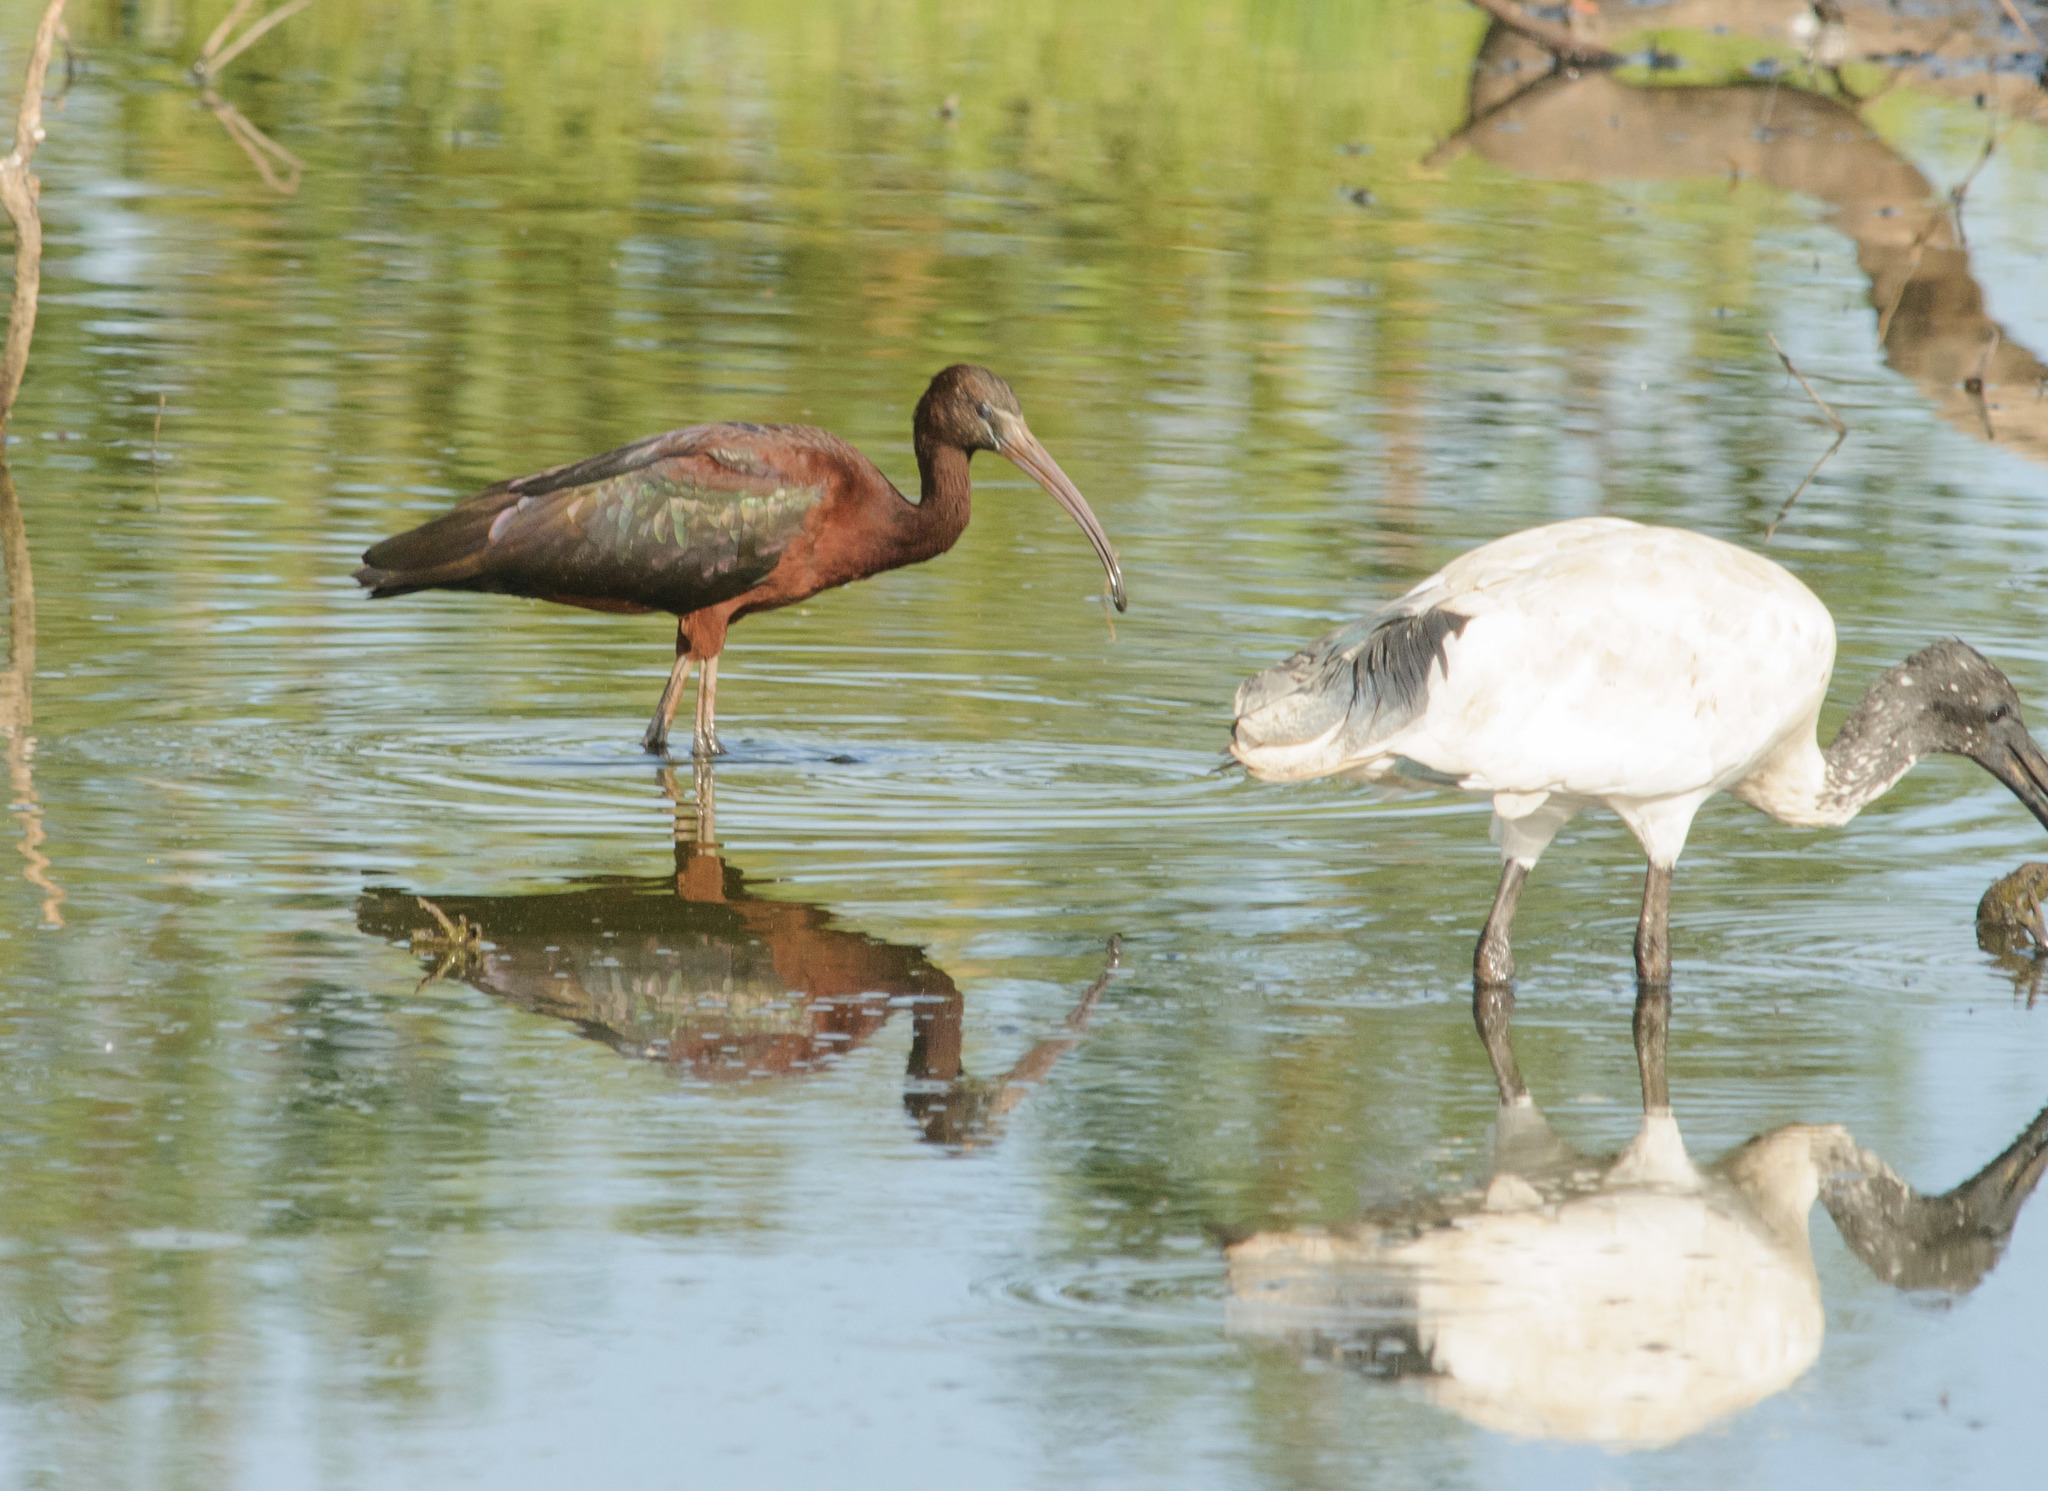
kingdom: Animalia
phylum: Chordata
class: Aves
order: Pelecaniformes
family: Threskiornithidae
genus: Plegadis
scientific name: Plegadis falcinellus
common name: Glossy ibis
